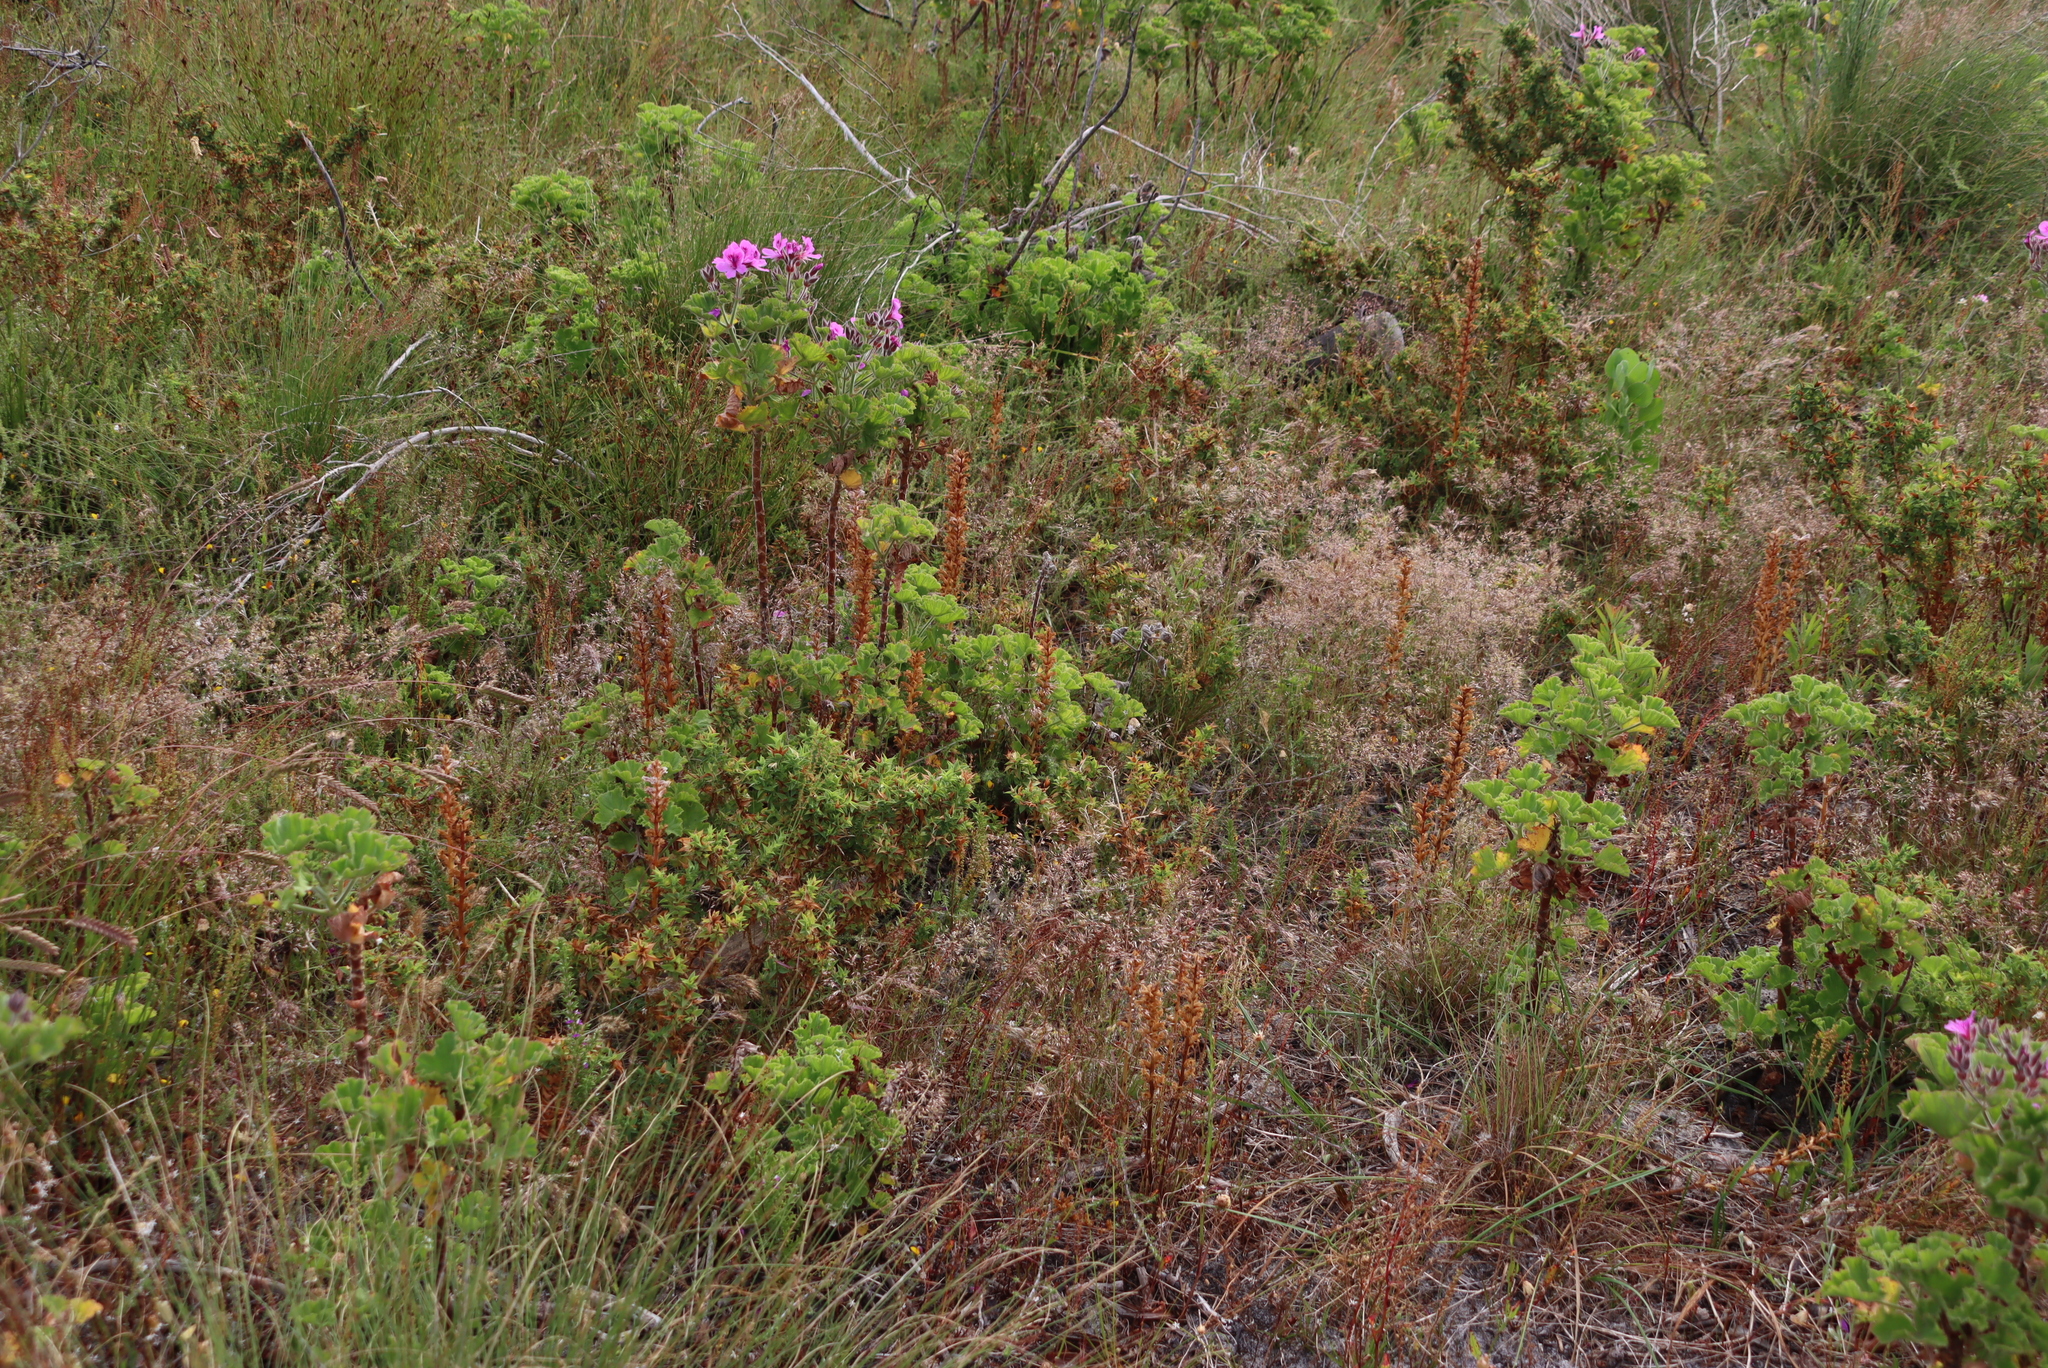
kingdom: Plantae
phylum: Tracheophyta
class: Magnoliopsida
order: Geraniales
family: Geraniaceae
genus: Pelargonium
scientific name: Pelargonium cucullatum
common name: Tree pelargonium
